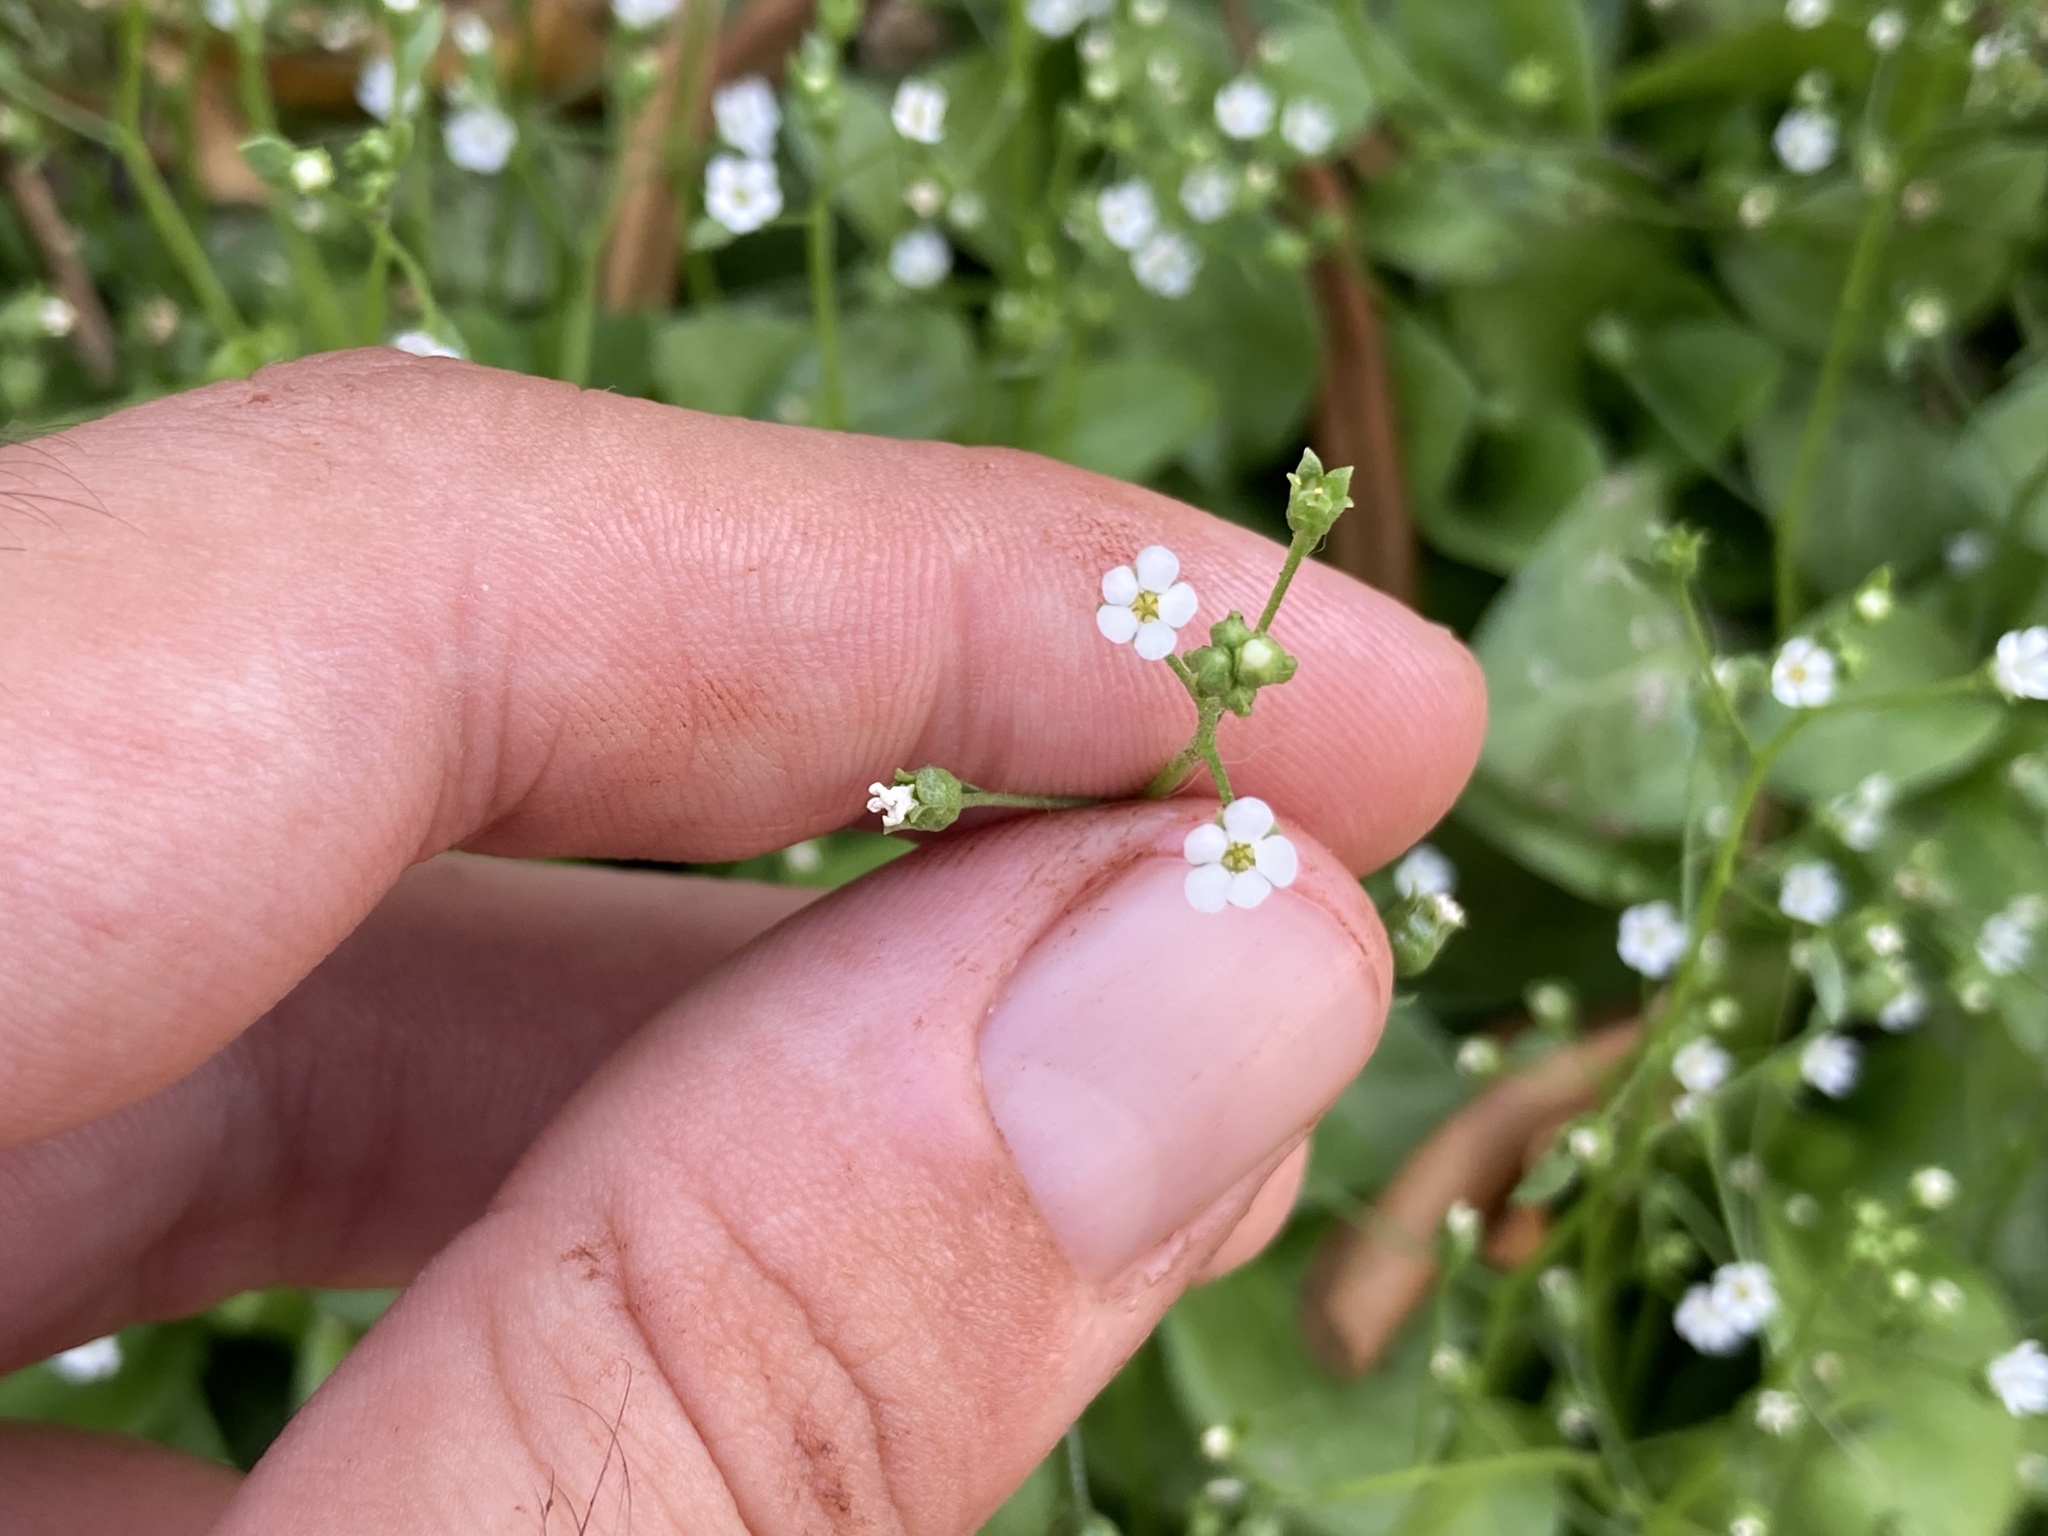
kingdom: Plantae
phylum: Tracheophyta
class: Magnoliopsida
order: Ericales
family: Primulaceae
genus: Samolus
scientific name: Samolus valerandi
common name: Brookweed
